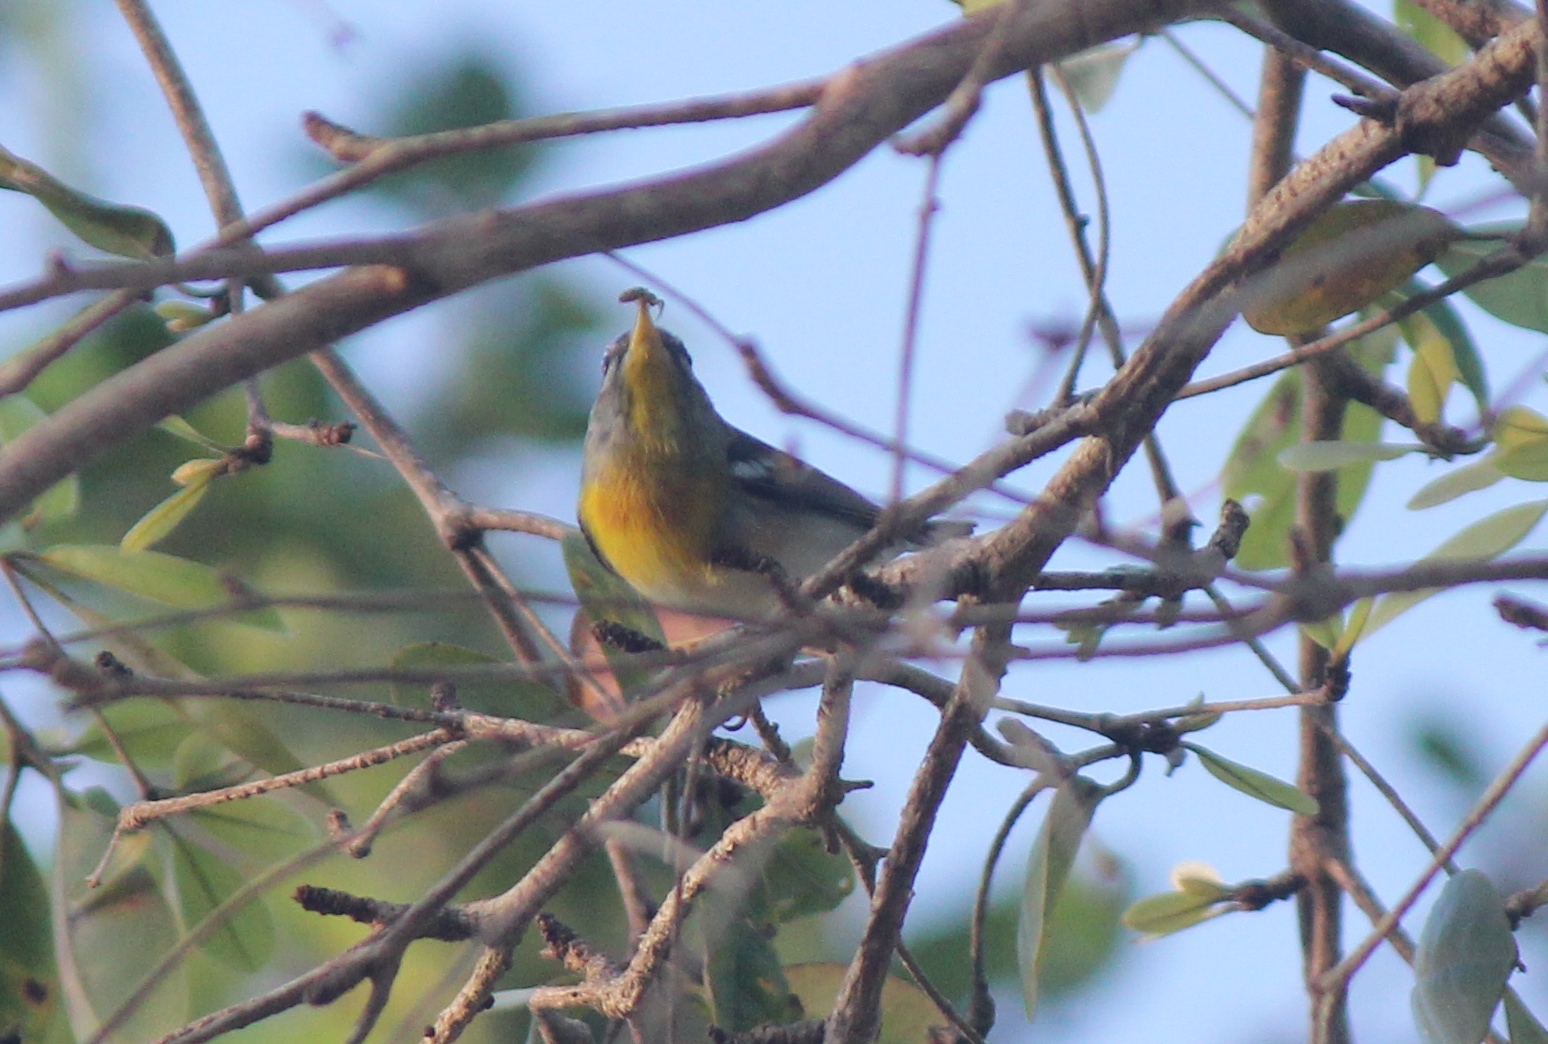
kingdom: Animalia
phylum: Chordata
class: Aves
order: Passeriformes
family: Parulidae
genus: Setophaga
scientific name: Setophaga americana
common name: Northern parula
